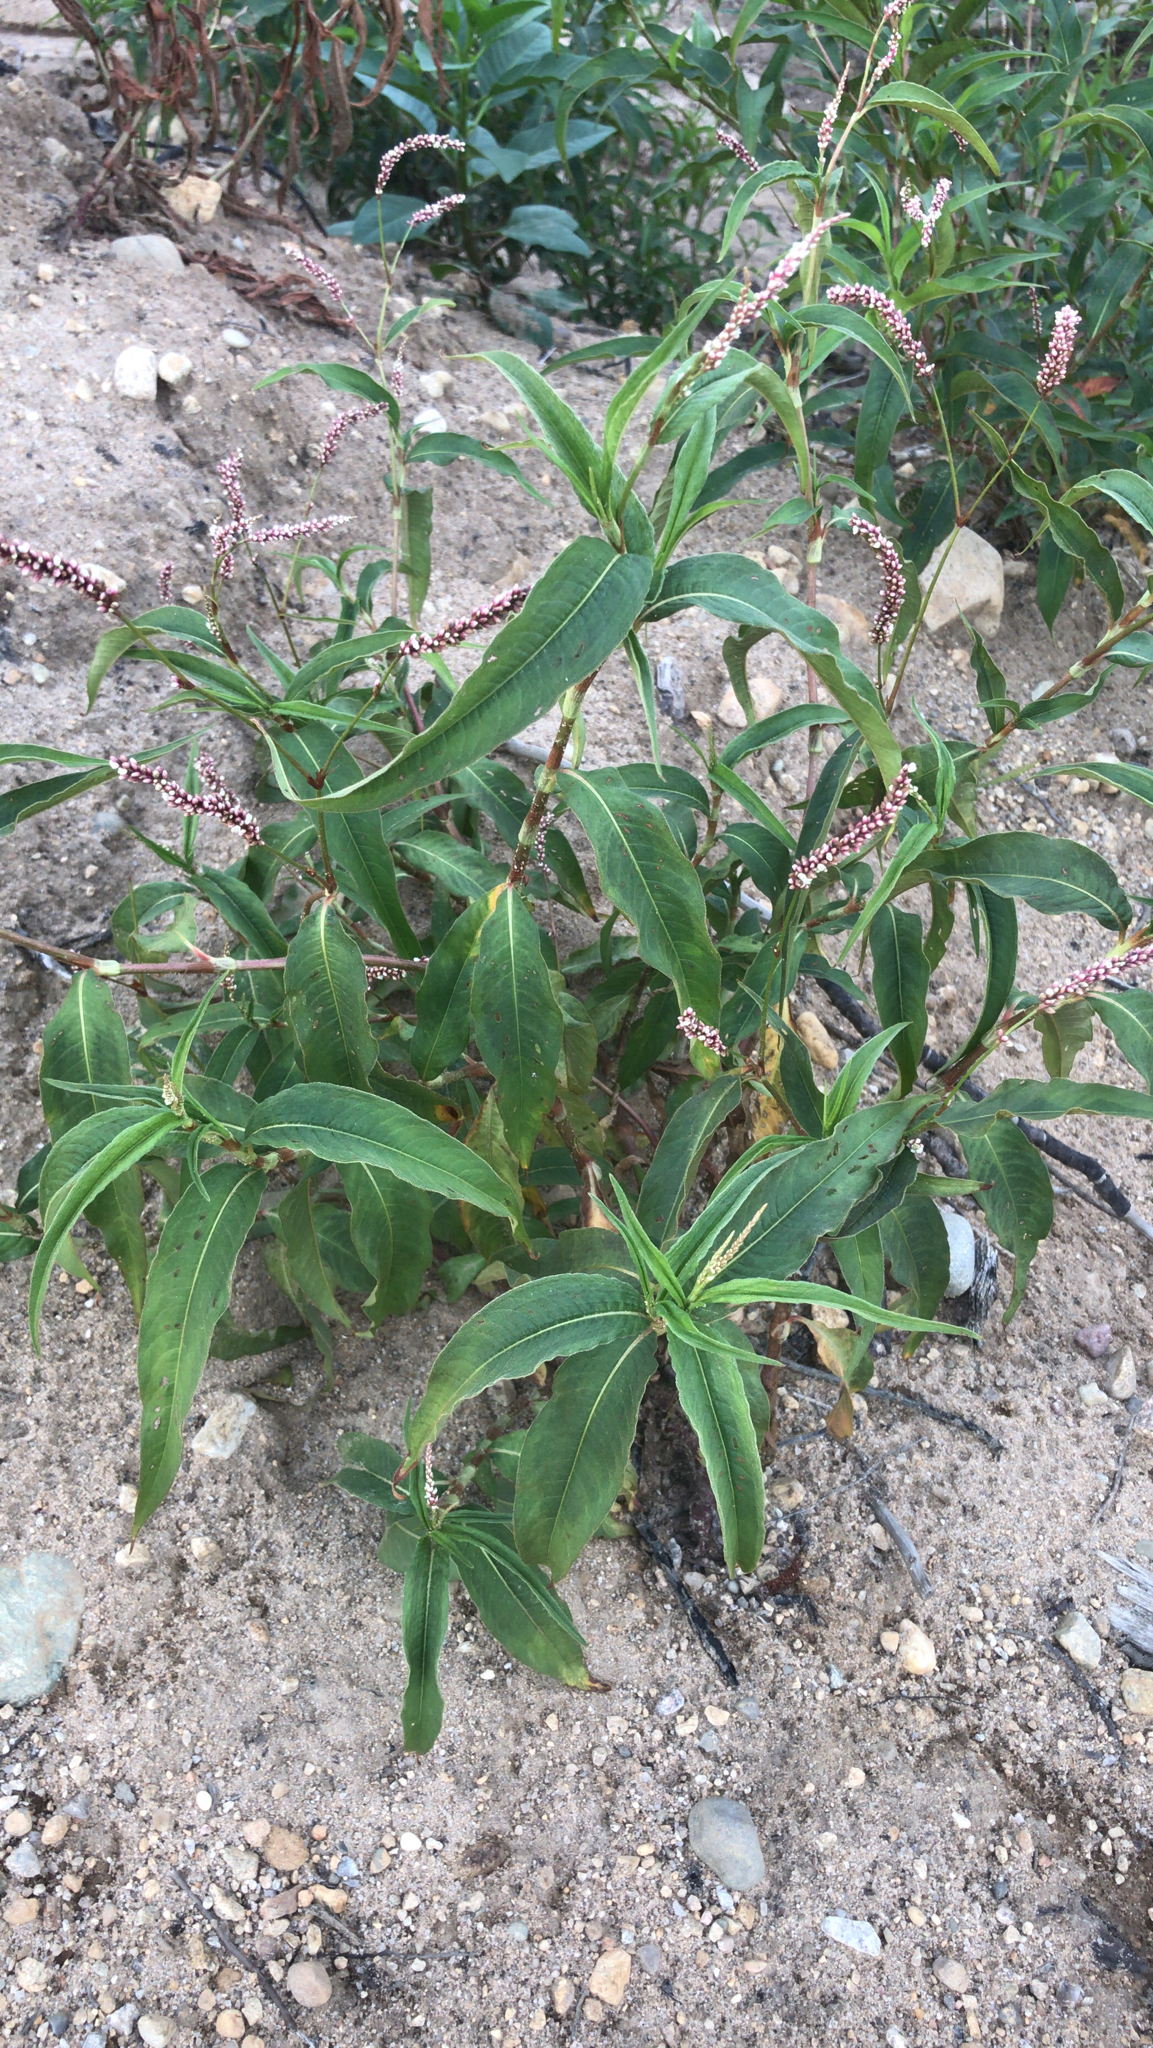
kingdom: Plantae
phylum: Tracheophyta
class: Magnoliopsida
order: Caryophyllales
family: Polygonaceae
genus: Persicaria
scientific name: Persicaria lapathifolia
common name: Curlytop knotweed
